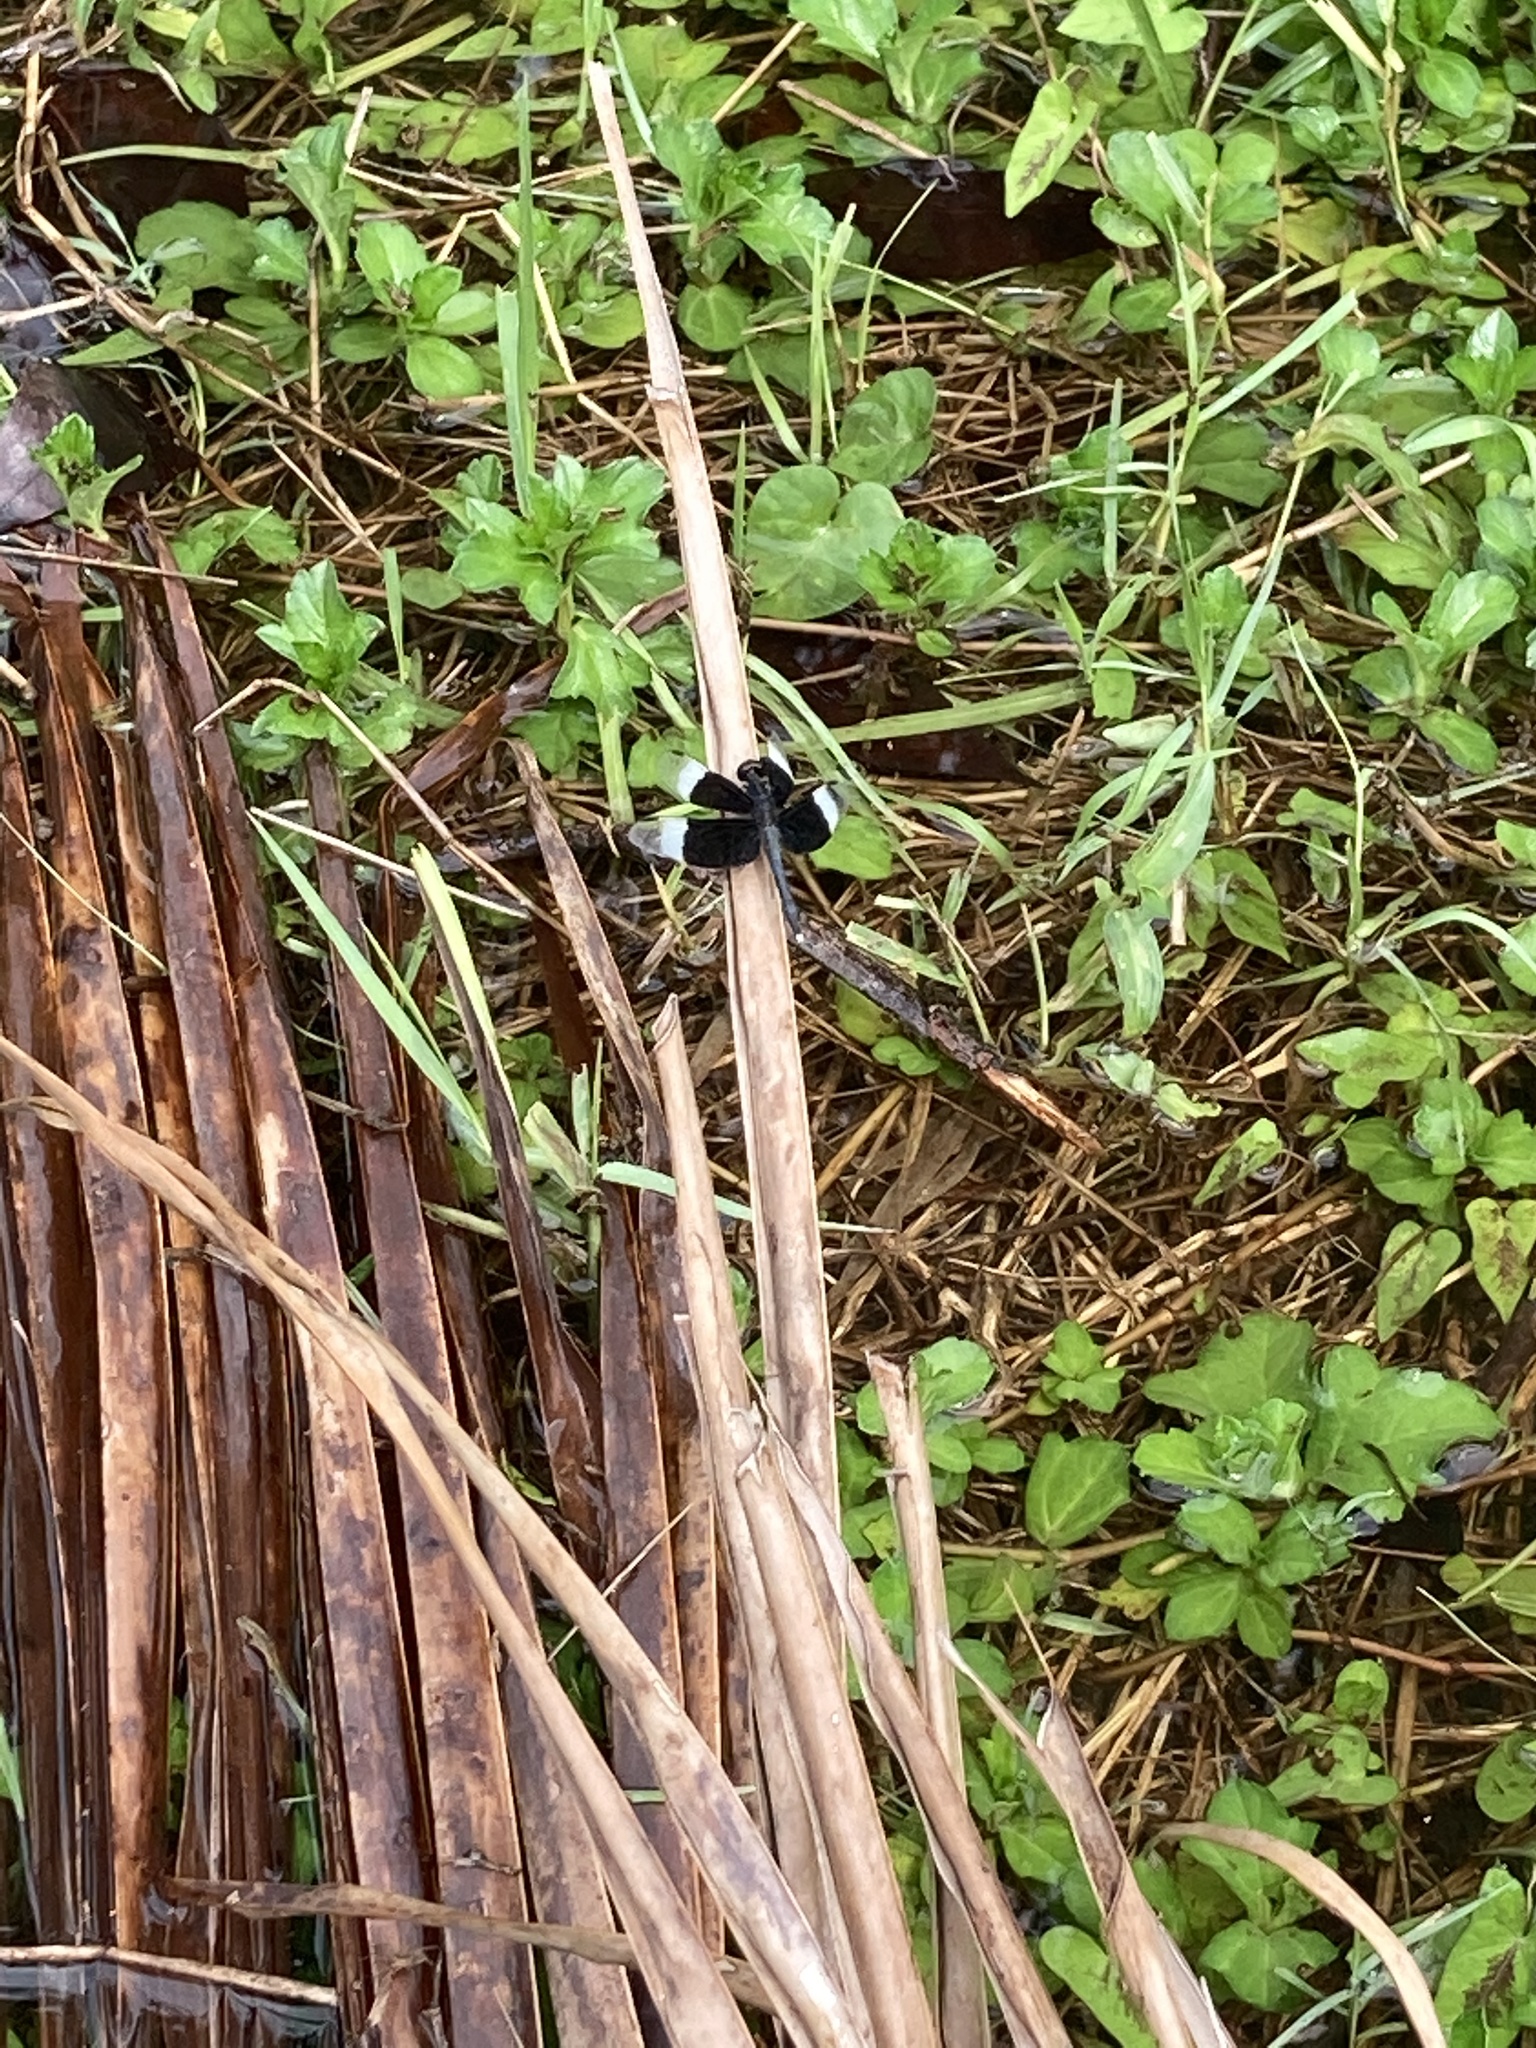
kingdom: Animalia
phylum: Arthropoda
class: Insecta
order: Odonata
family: Libellulidae
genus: Neurothemis
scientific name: Neurothemis tullia
